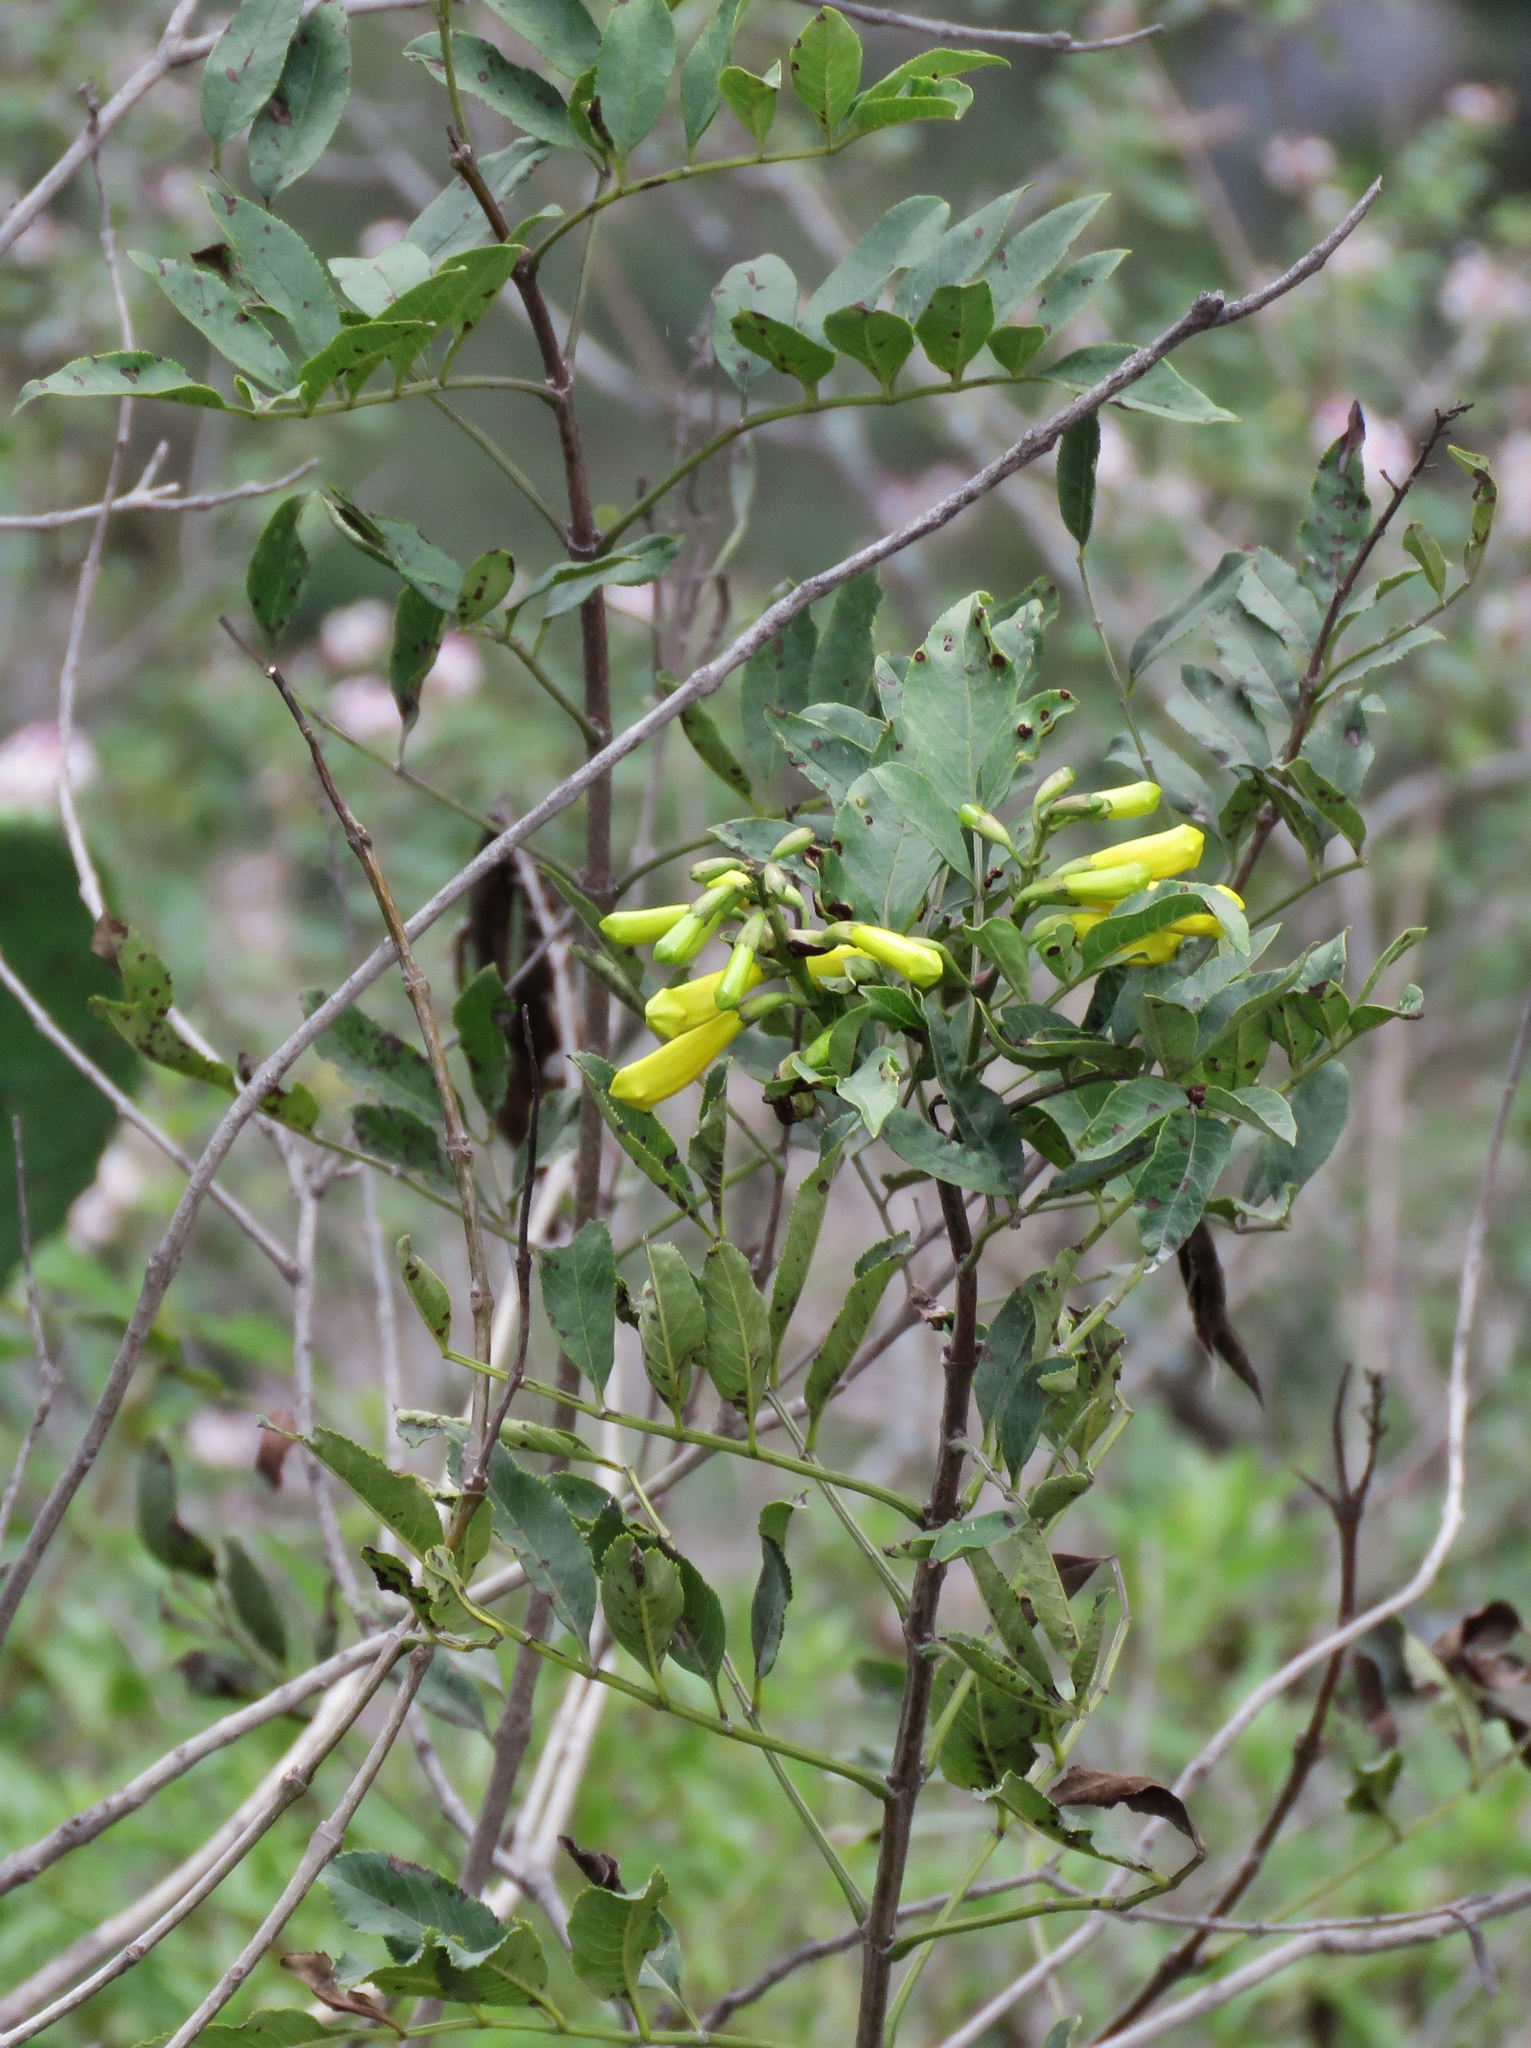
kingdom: Plantae
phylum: Tracheophyta
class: Magnoliopsida
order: Lamiales
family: Bignoniaceae
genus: Tecoma
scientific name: Tecoma stans
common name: Yellow trumpetbush
